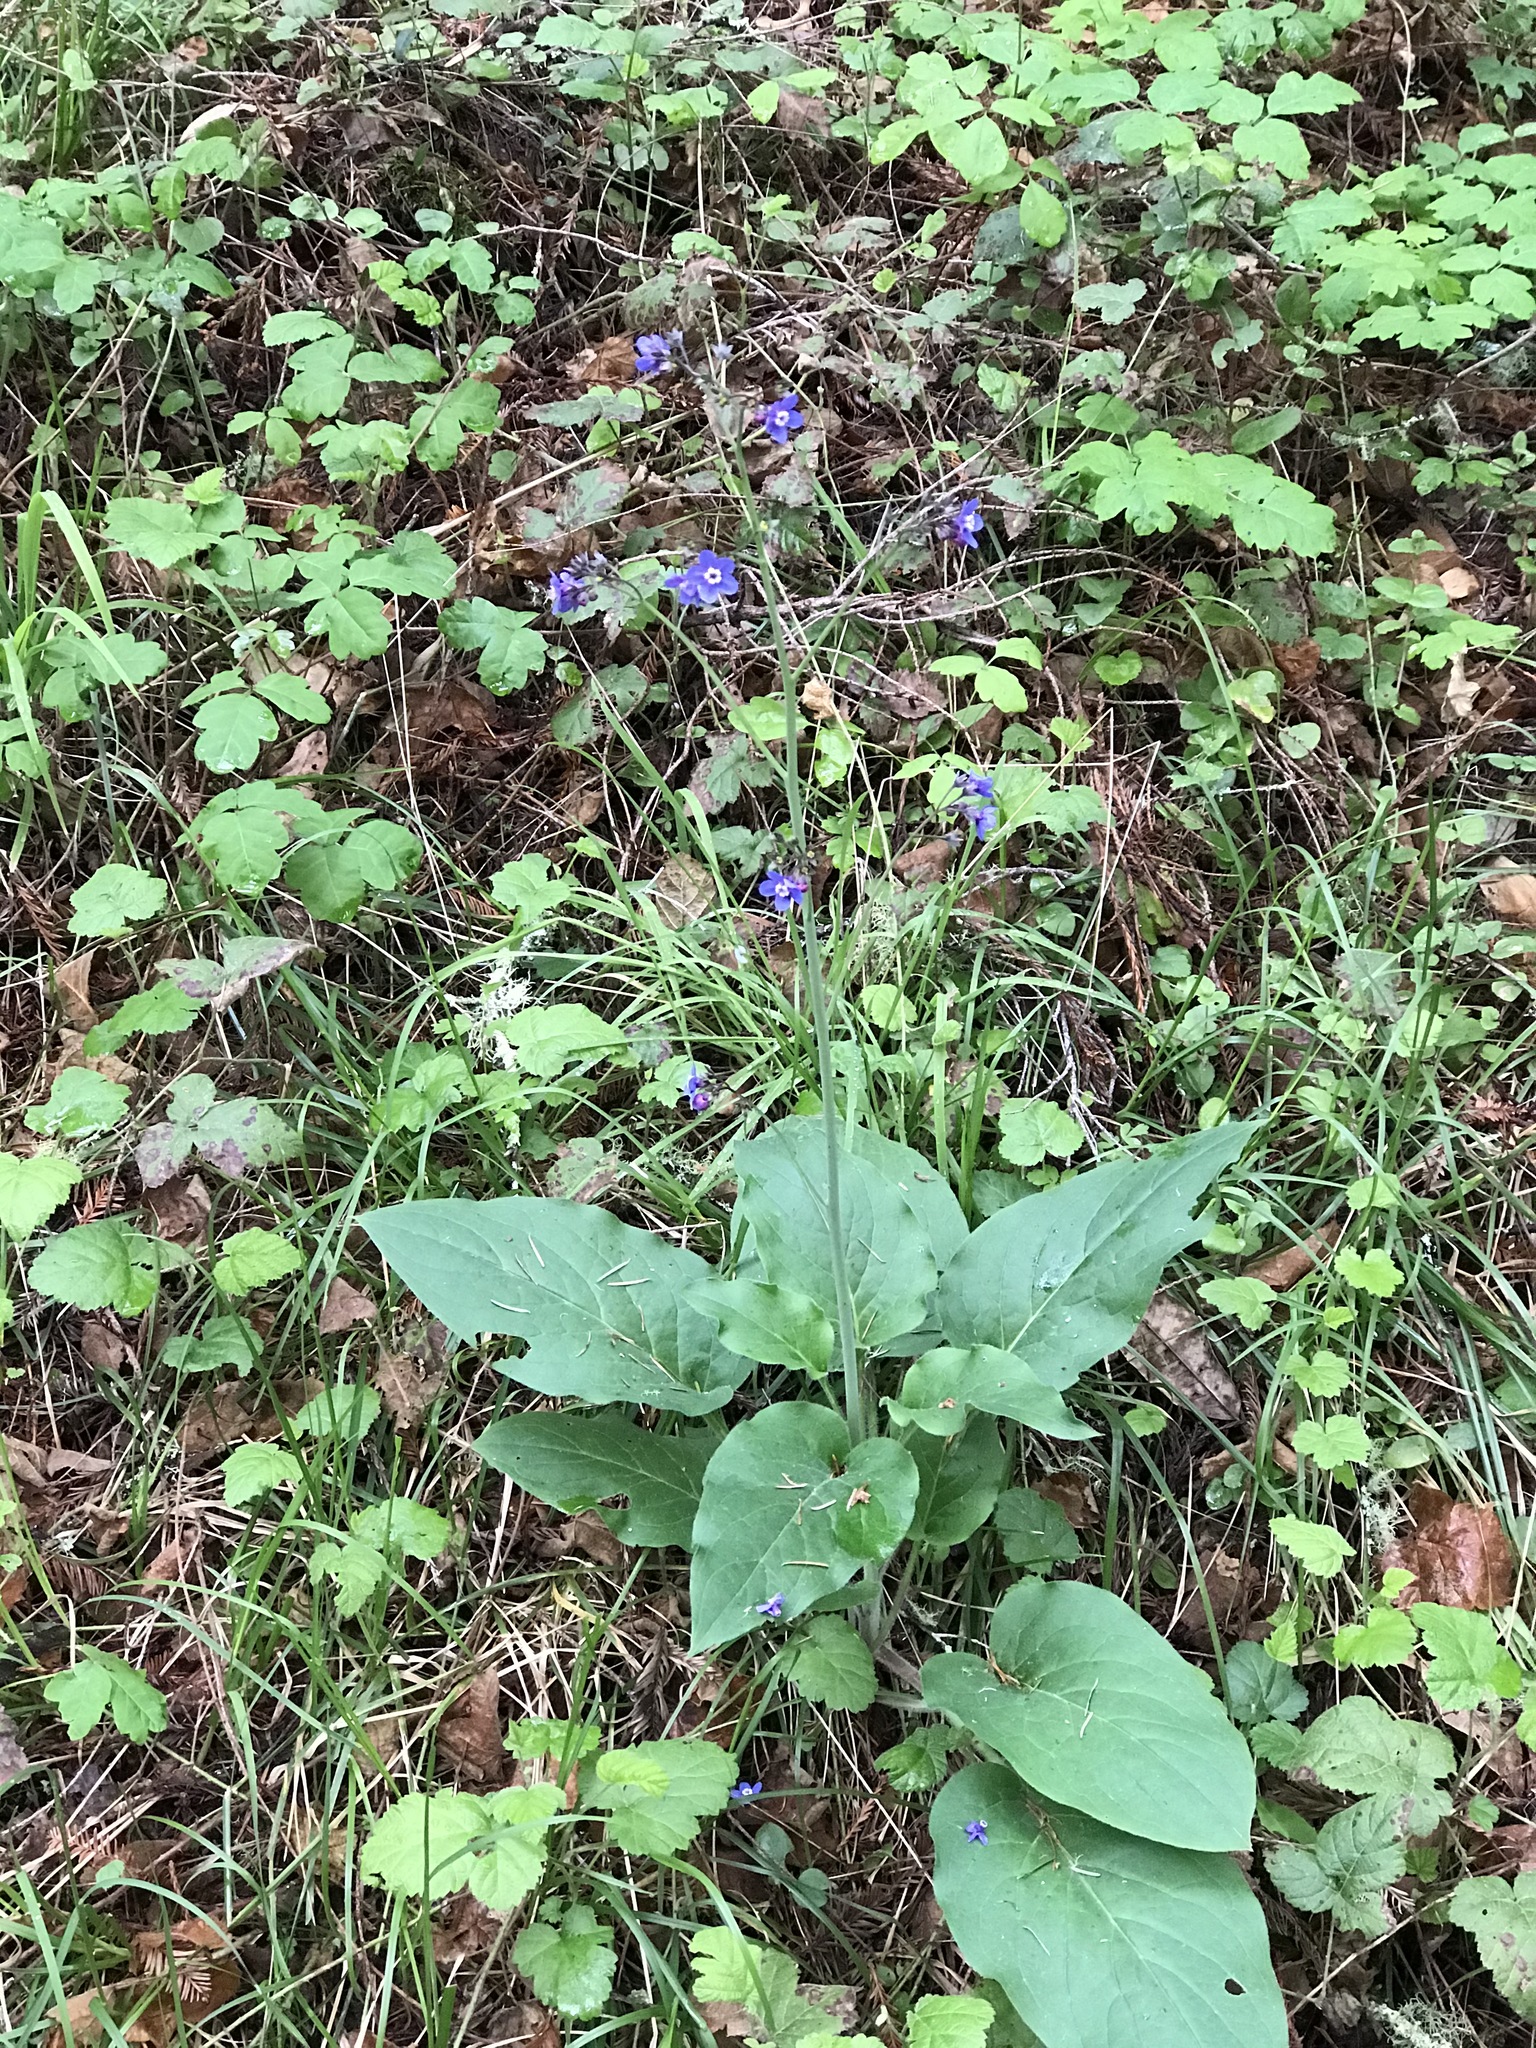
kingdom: Plantae
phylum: Tracheophyta
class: Magnoliopsida
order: Boraginales
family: Boraginaceae
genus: Adelinia
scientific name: Adelinia grande
